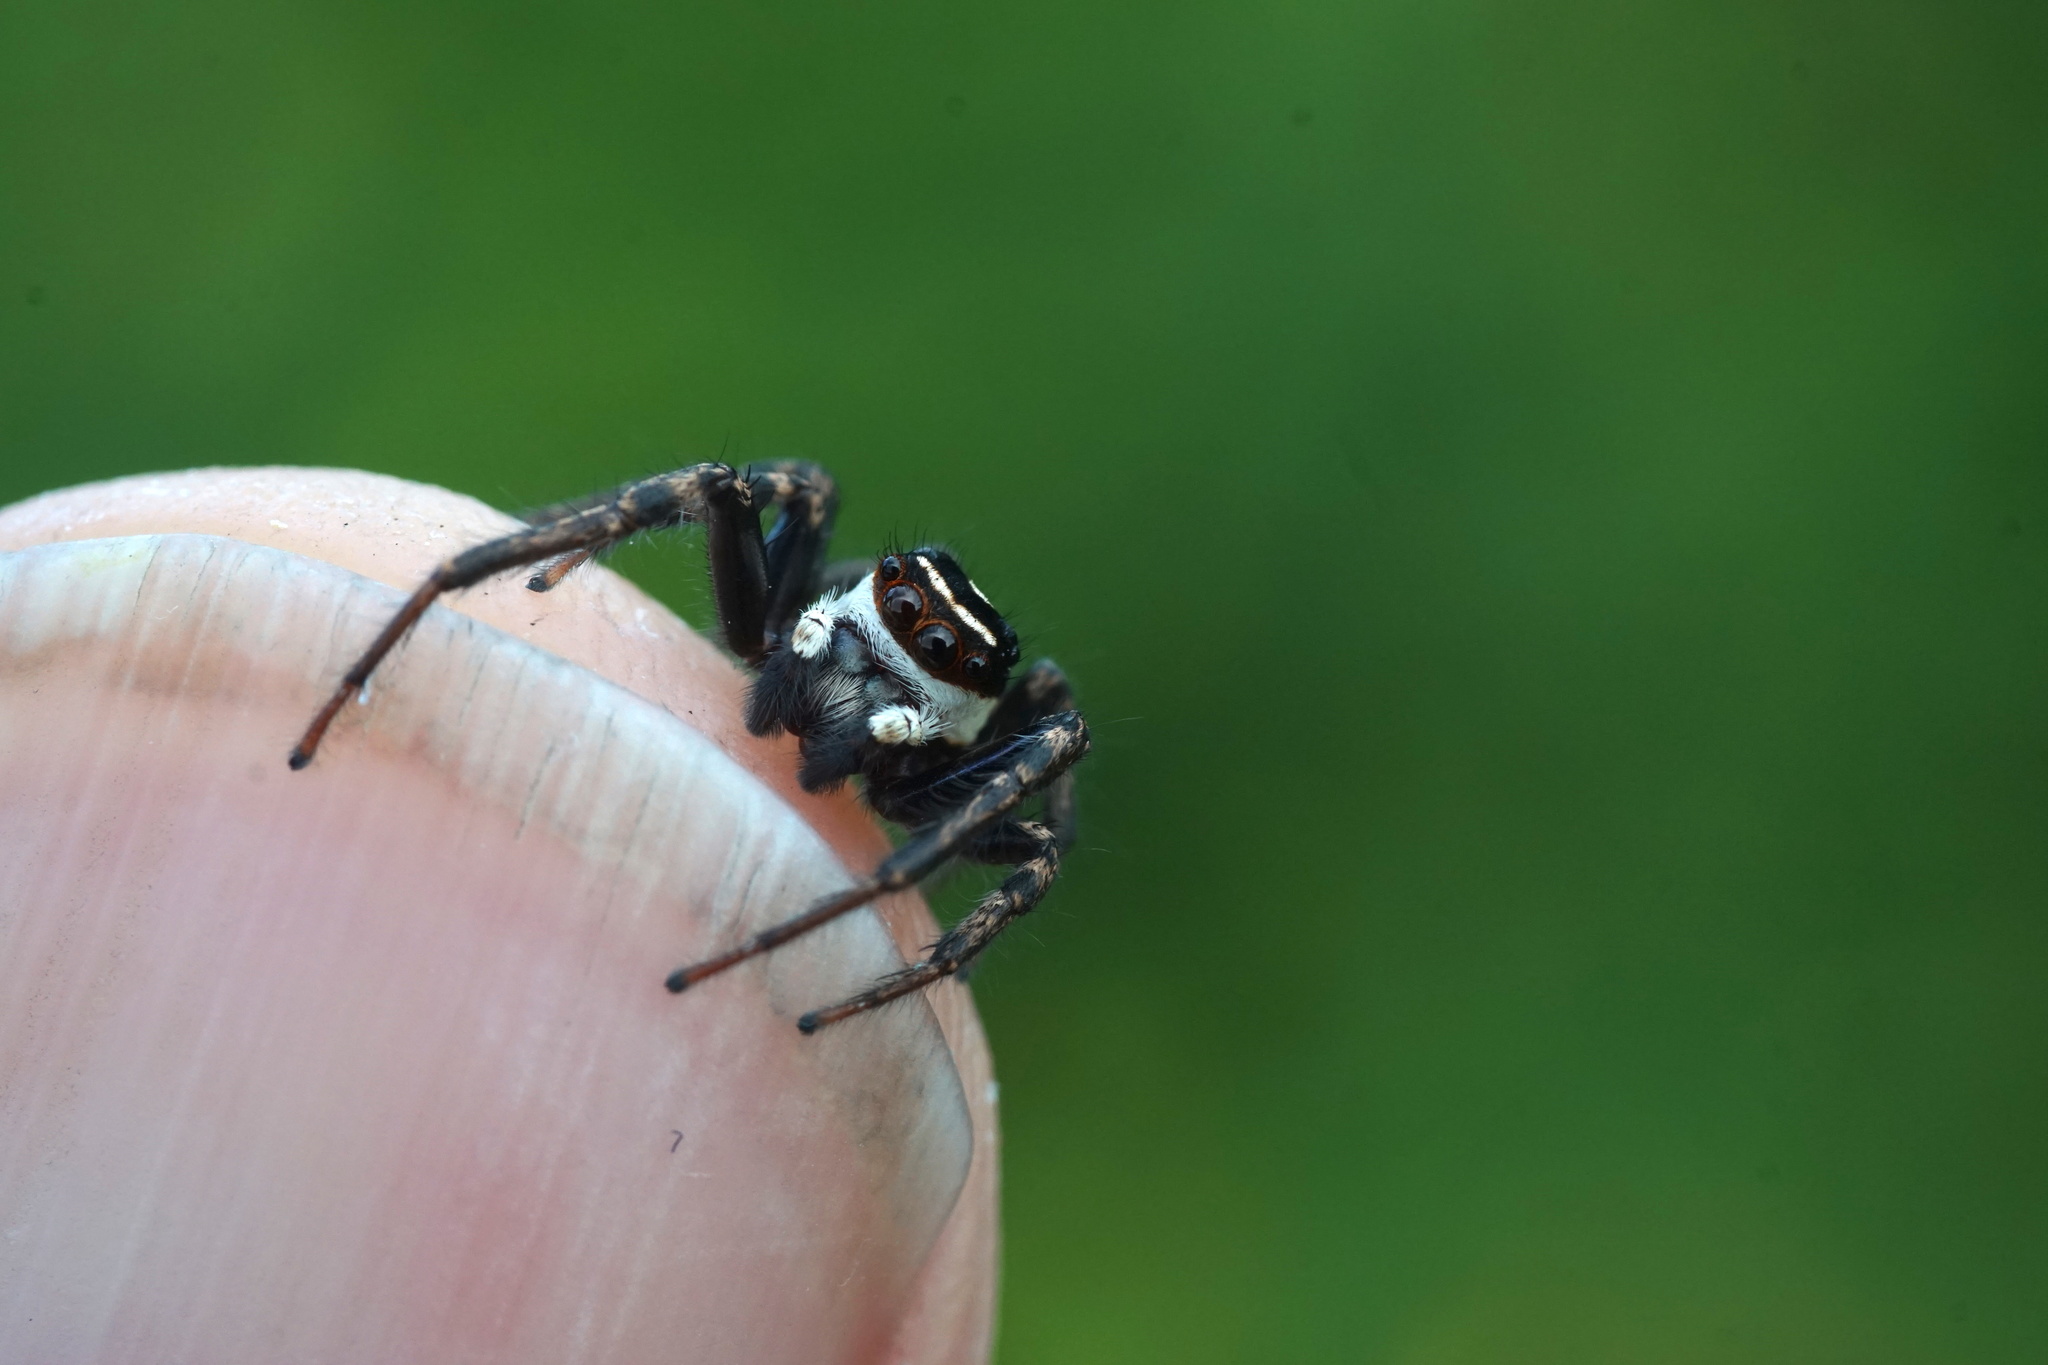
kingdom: Animalia
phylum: Arthropoda
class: Arachnida
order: Araneae
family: Salticidae
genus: Leptofreya
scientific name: Leptofreya ambigua
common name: Jumping spider
